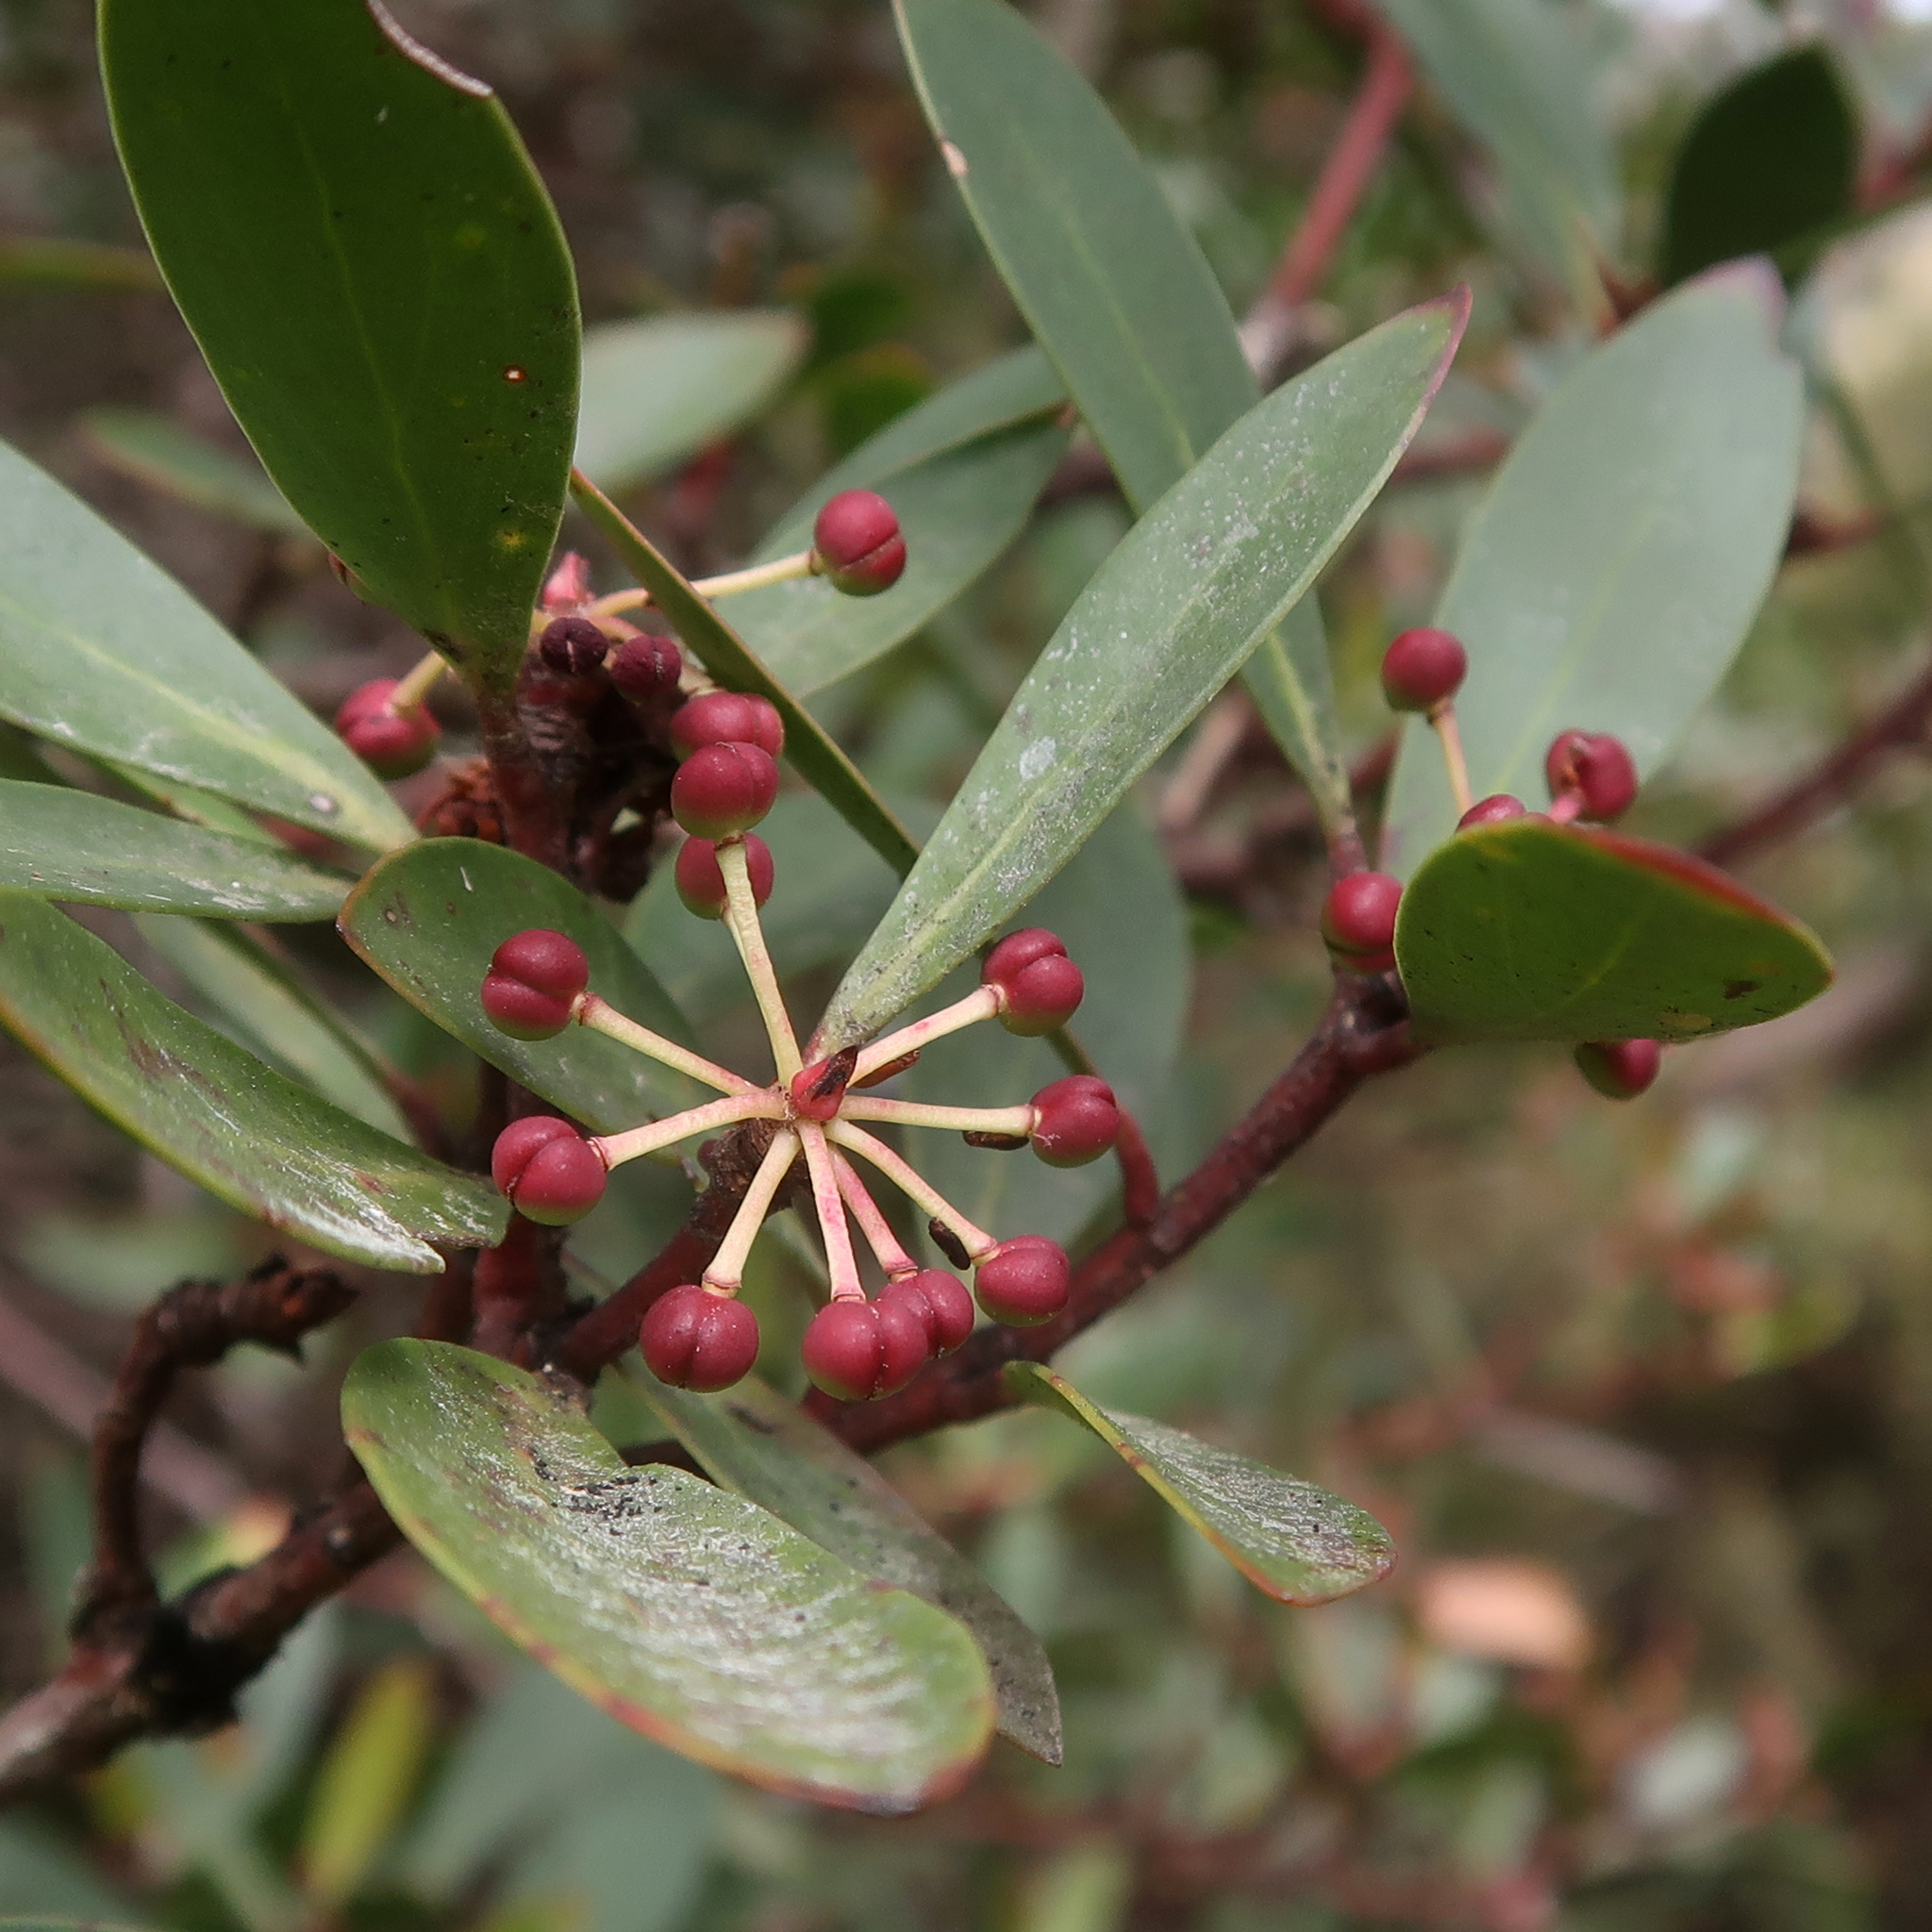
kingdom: Plantae
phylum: Tracheophyta
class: Magnoliopsida
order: Canellales
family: Winteraceae
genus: Drimys
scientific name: Drimys aromatica
